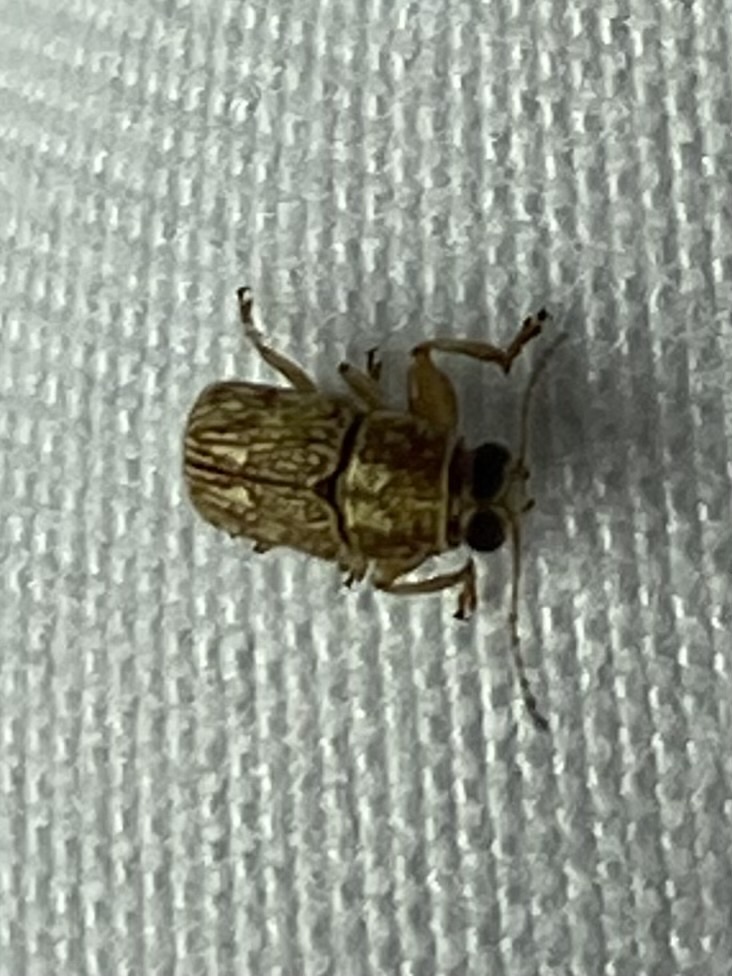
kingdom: Animalia
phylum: Arthropoda
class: Insecta
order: Coleoptera
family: Chrysomelidae
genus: Pachybrachis
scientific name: Pachybrachis texanus
